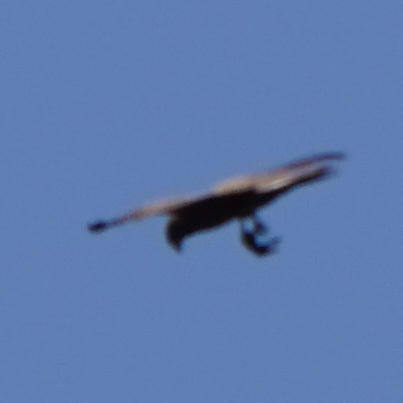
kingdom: Animalia
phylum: Chordata
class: Aves
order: Accipitriformes
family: Accipitridae
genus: Milvus
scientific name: Milvus migrans
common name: Black kite
